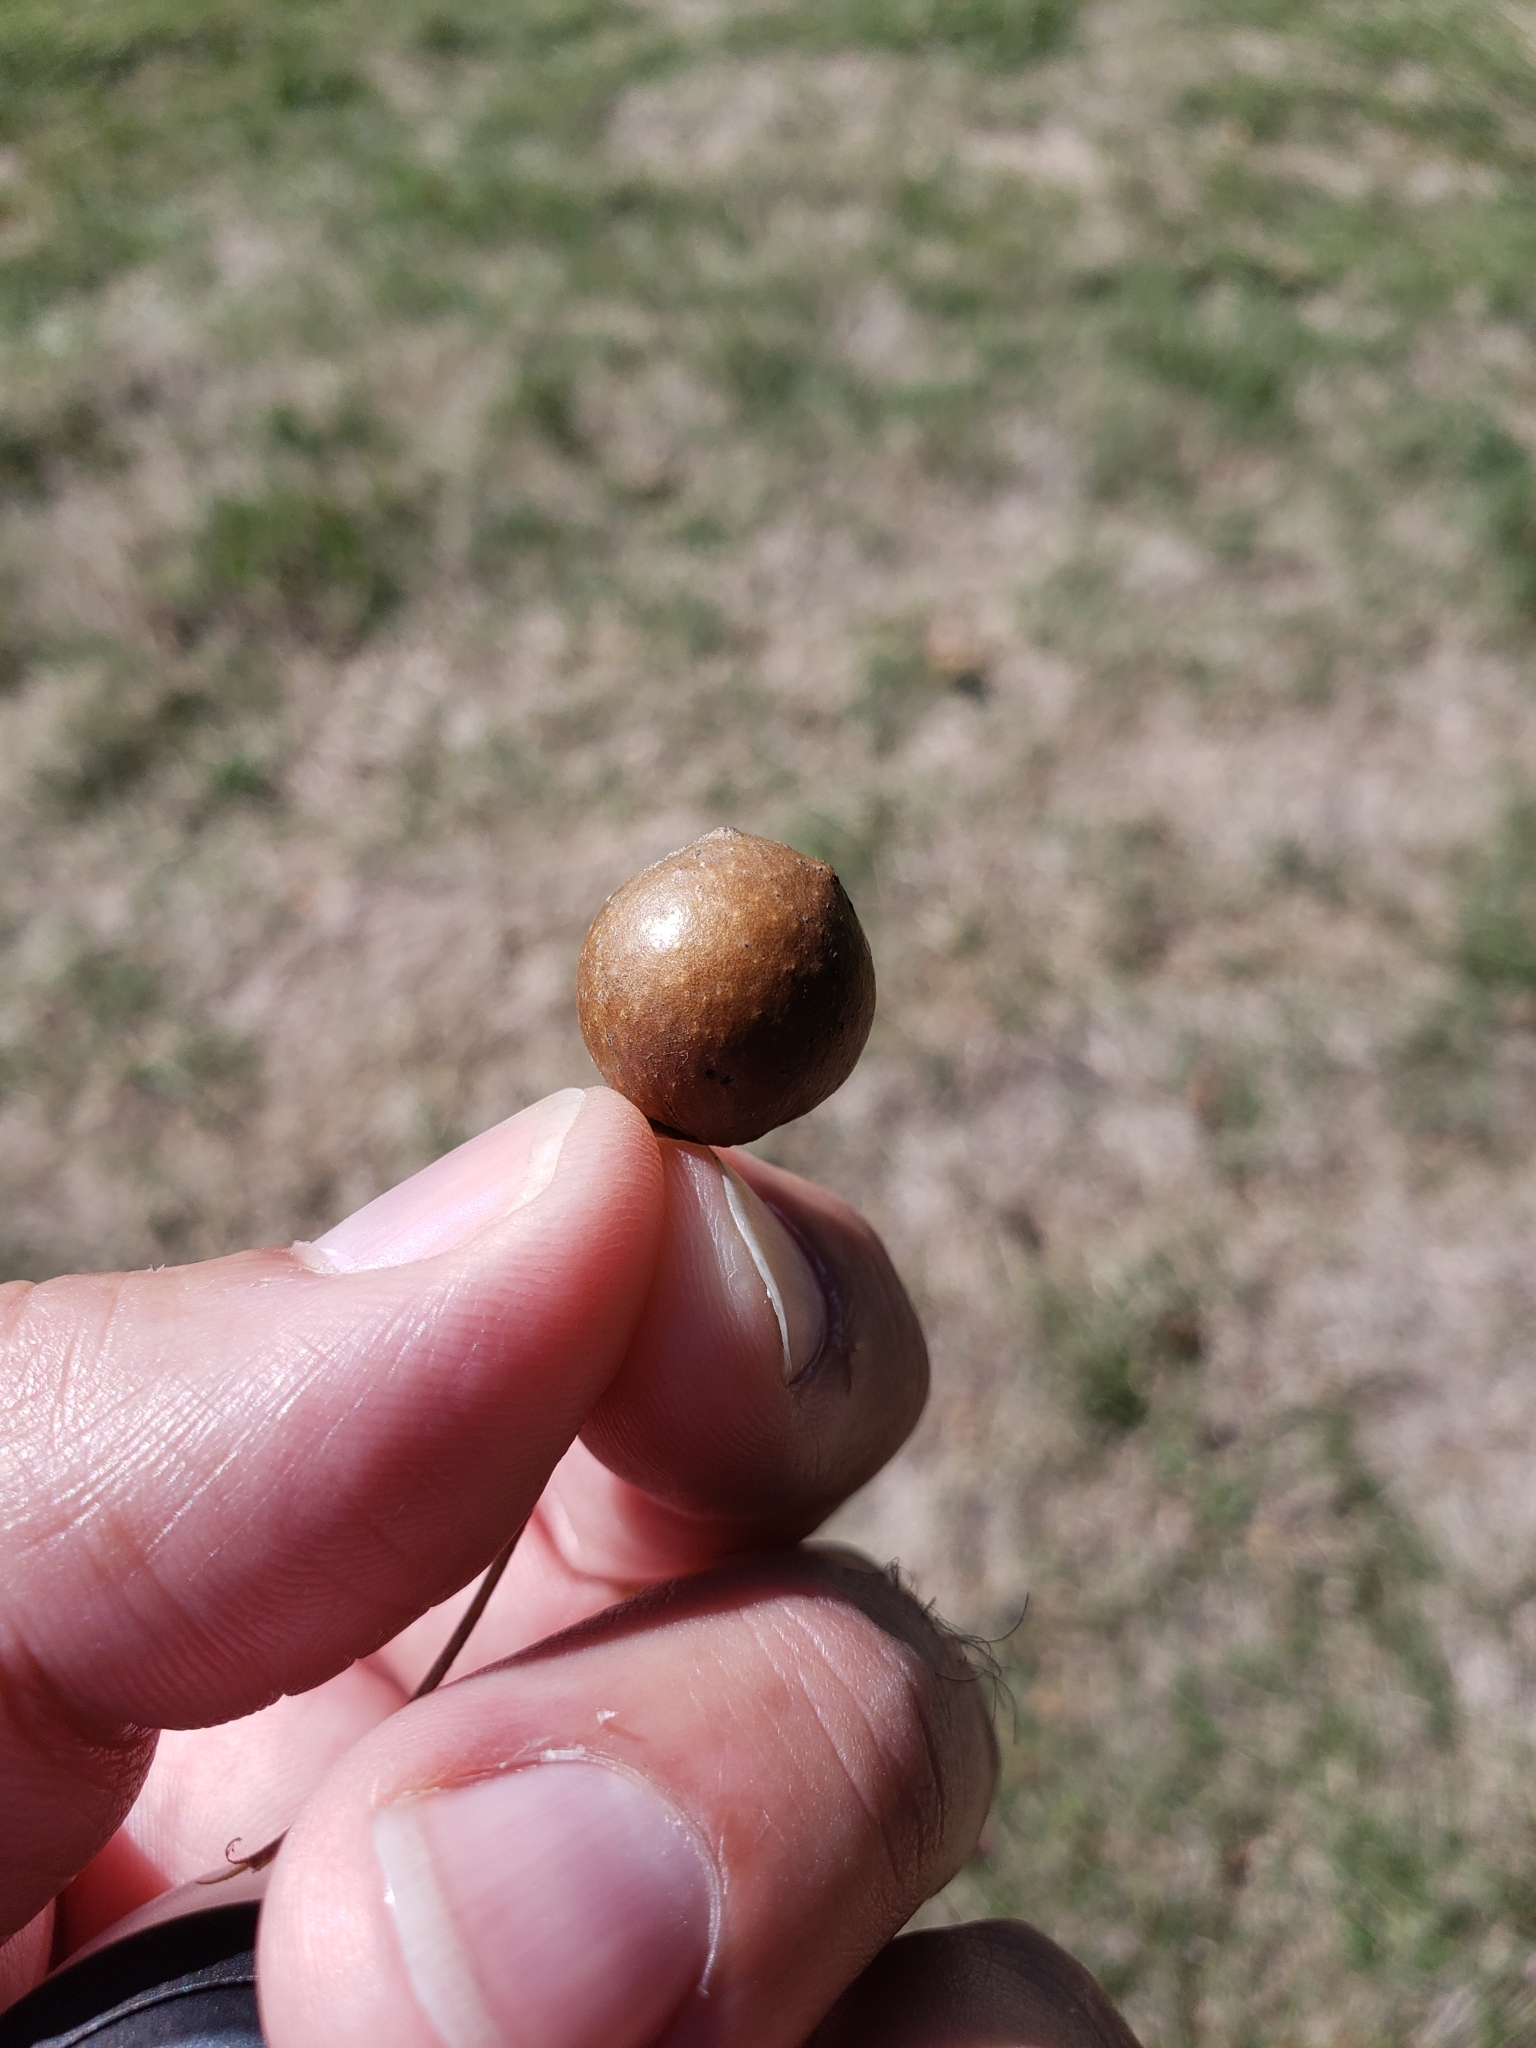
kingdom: Animalia
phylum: Arthropoda
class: Insecta
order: Hymenoptera
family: Cynipidae
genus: Disholcaspis
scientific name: Disholcaspis quercusglobulus
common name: Round bullet gall wasp
